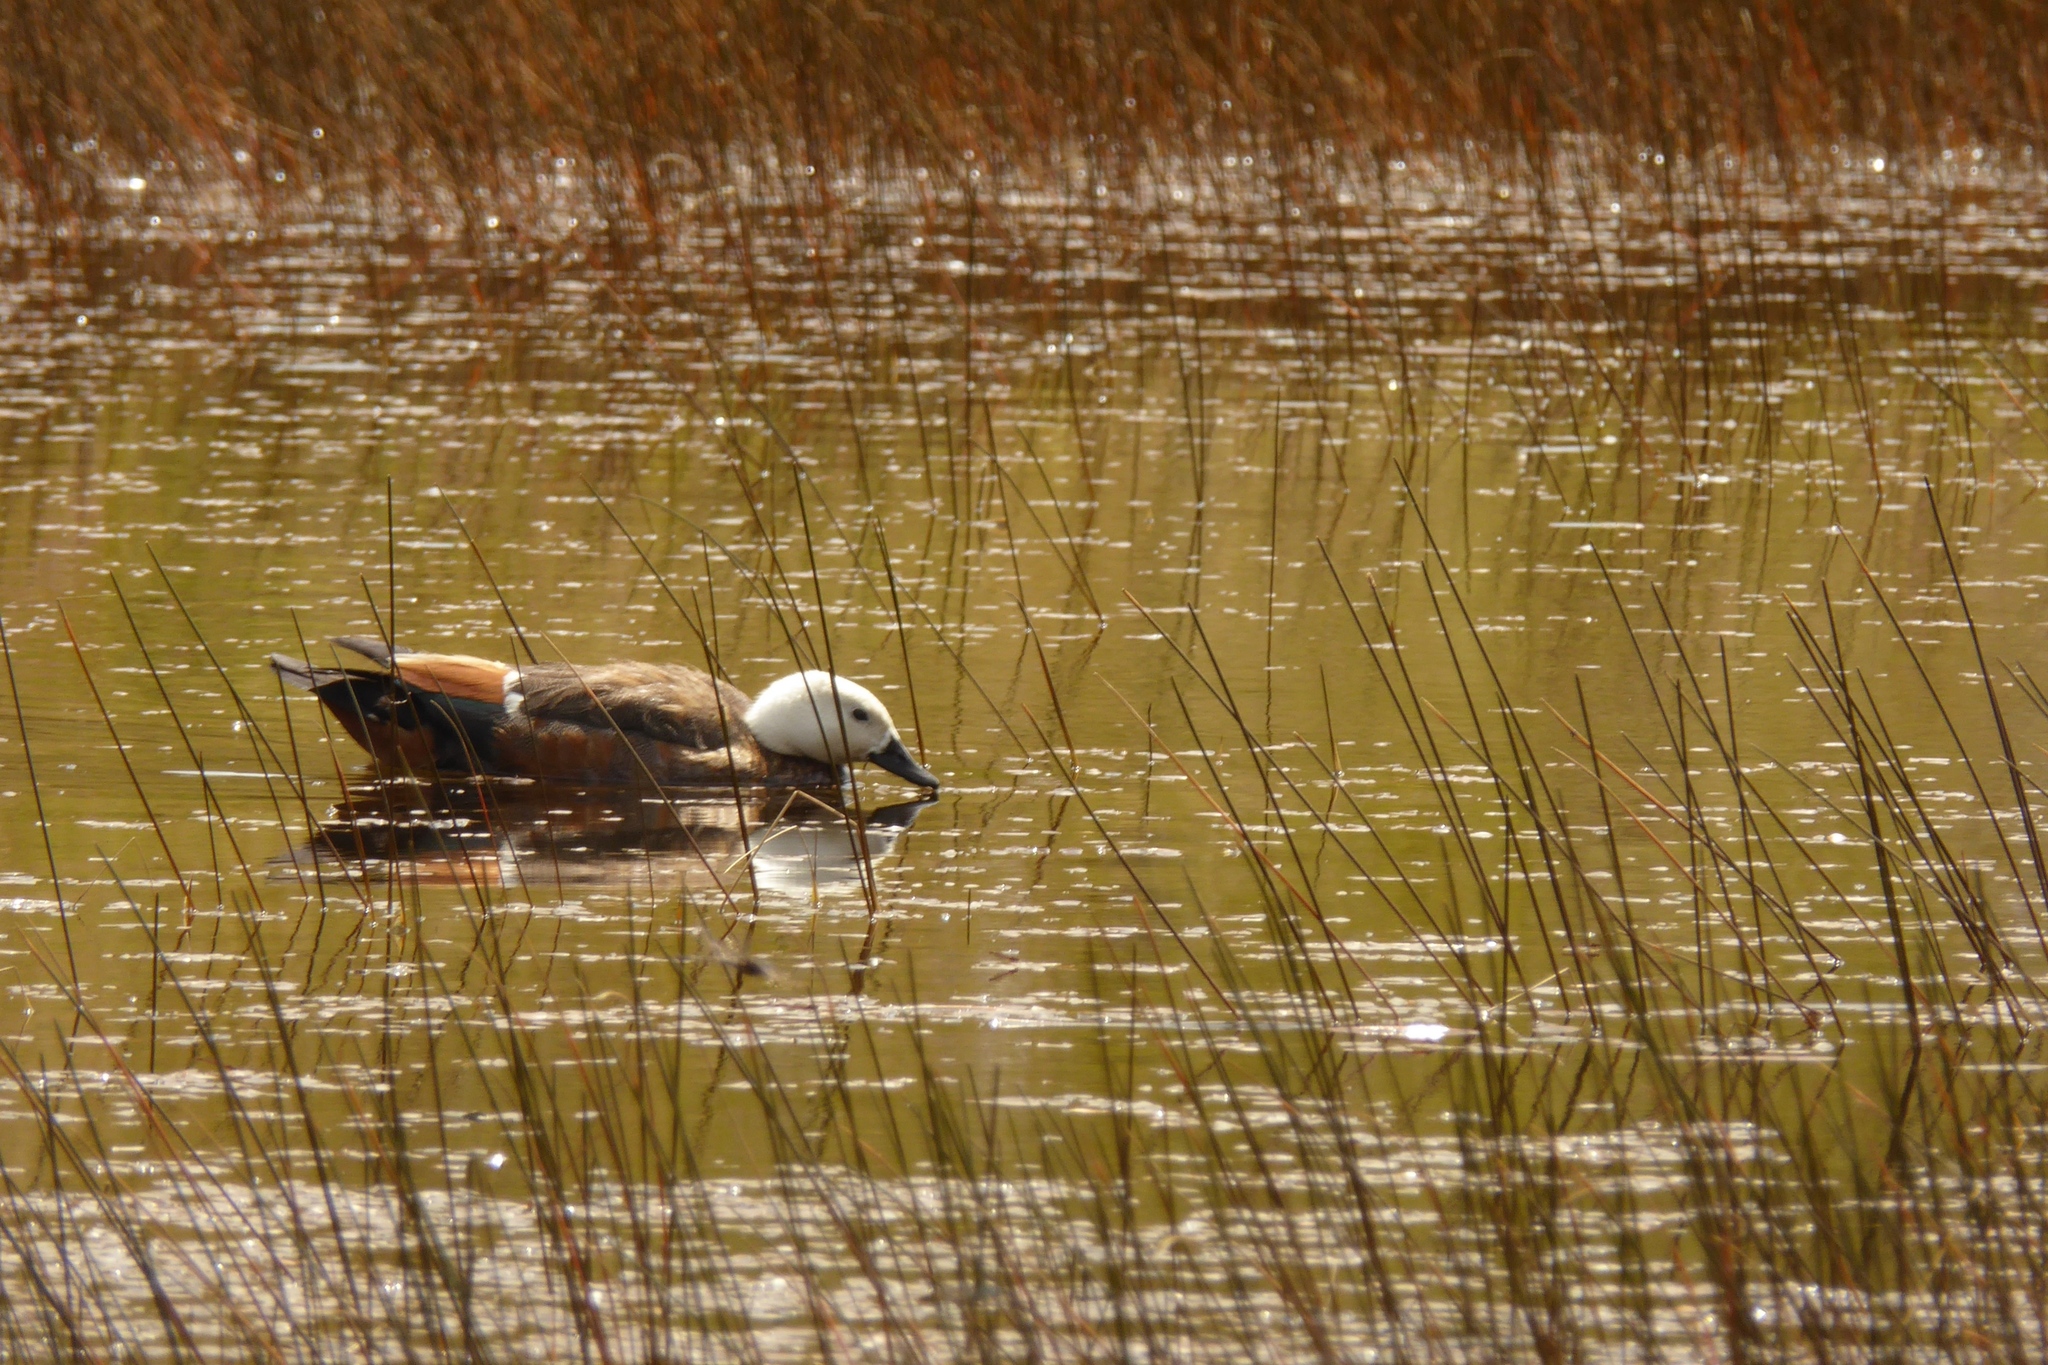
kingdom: Animalia
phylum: Chordata
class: Aves
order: Anseriformes
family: Anatidae
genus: Tadorna
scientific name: Tadorna variegata
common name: Paradise shelduck
